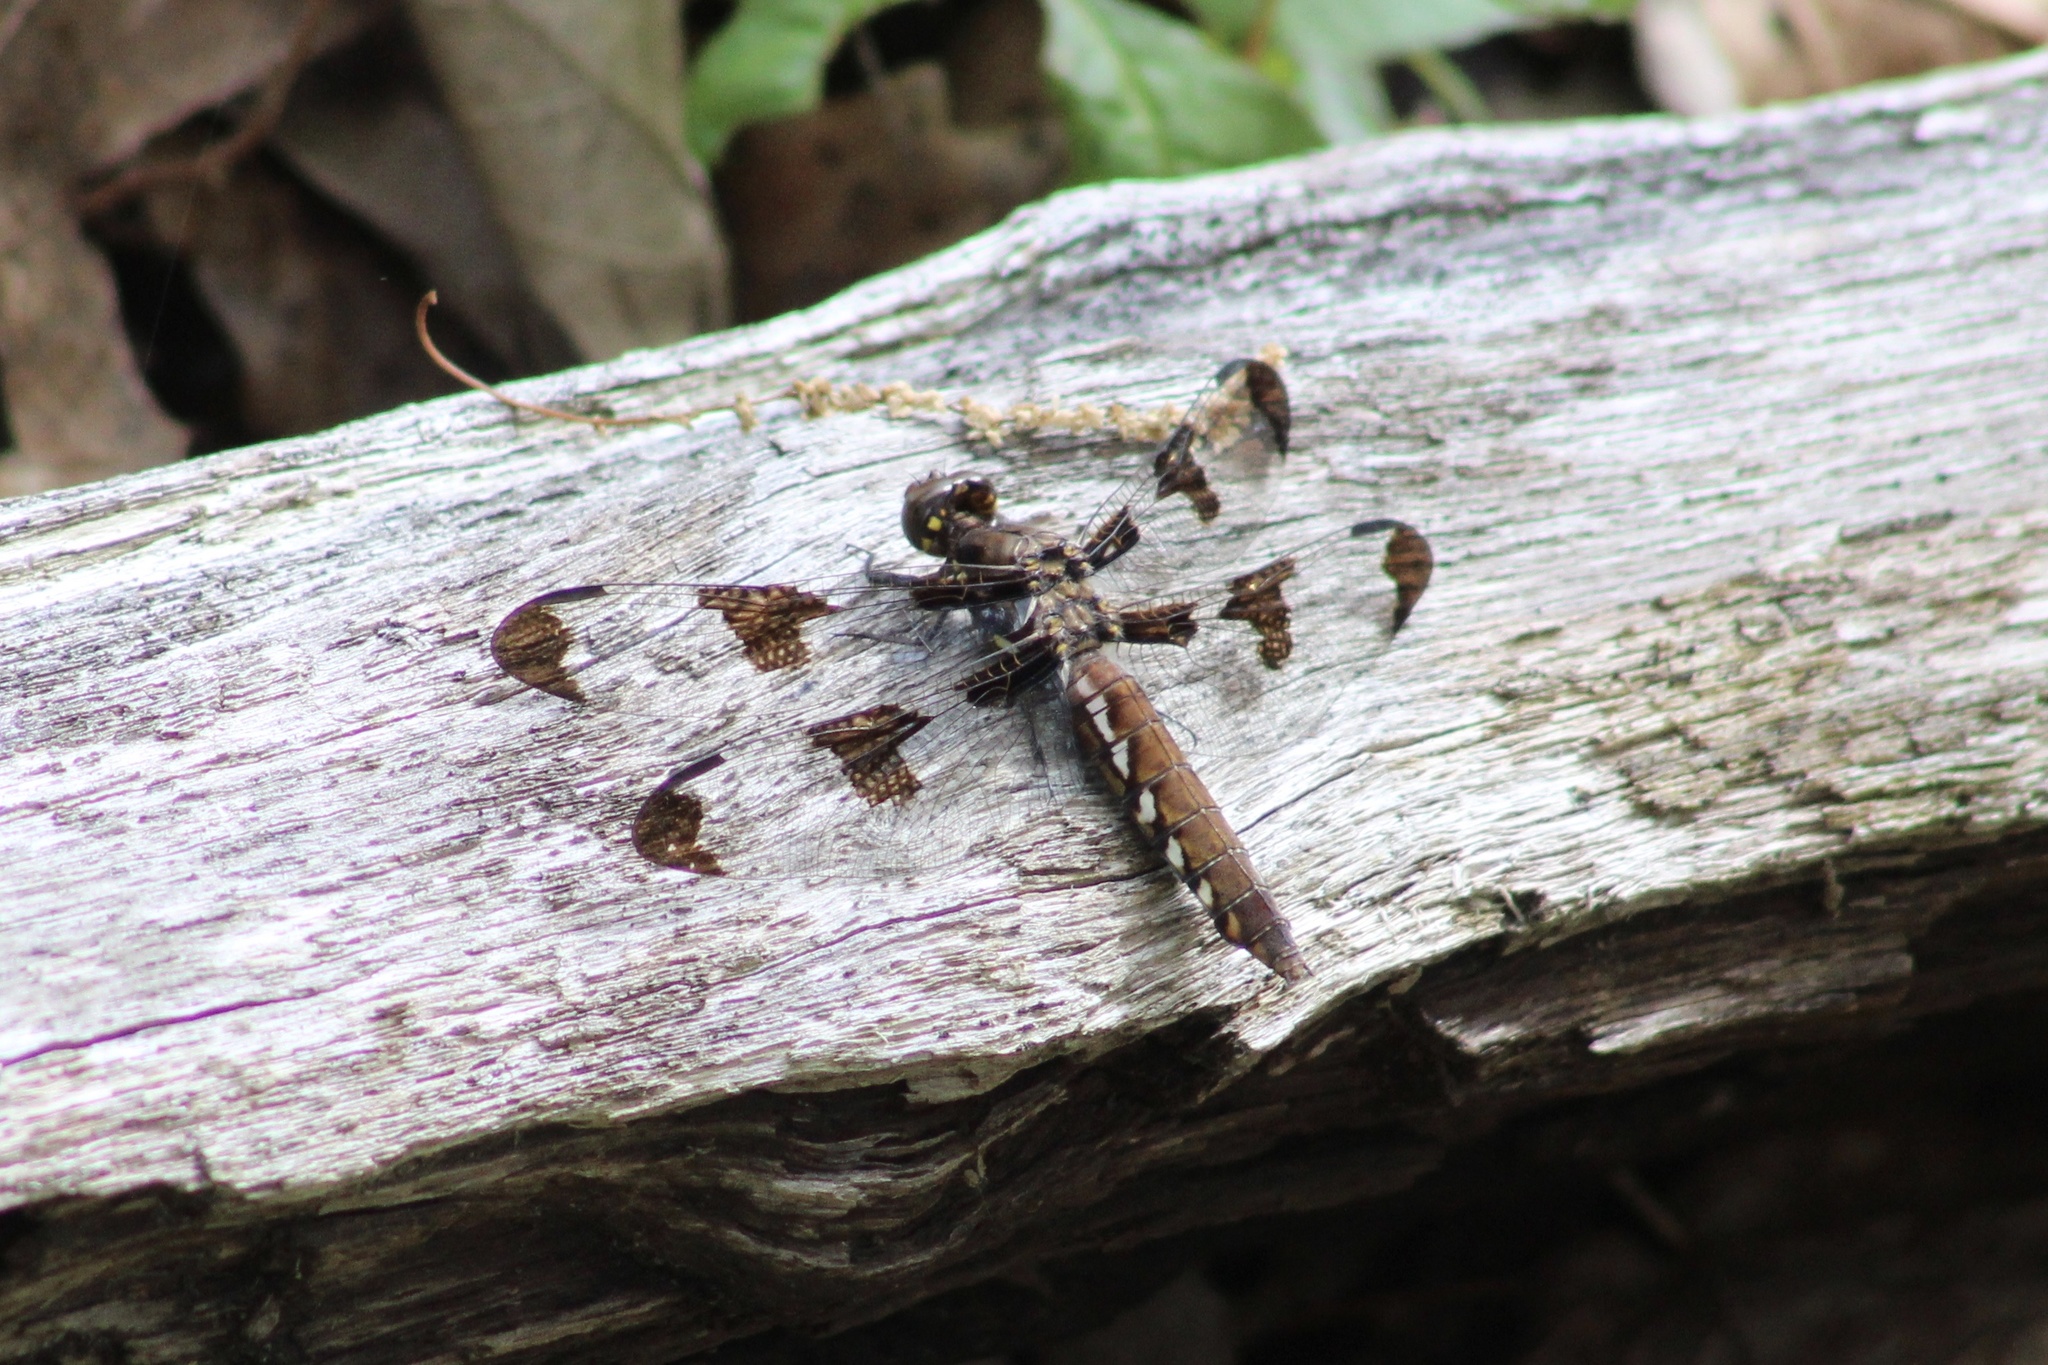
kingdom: Animalia
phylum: Arthropoda
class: Insecta
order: Odonata
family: Libellulidae
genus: Plathemis
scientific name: Plathemis lydia
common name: Common whitetail
